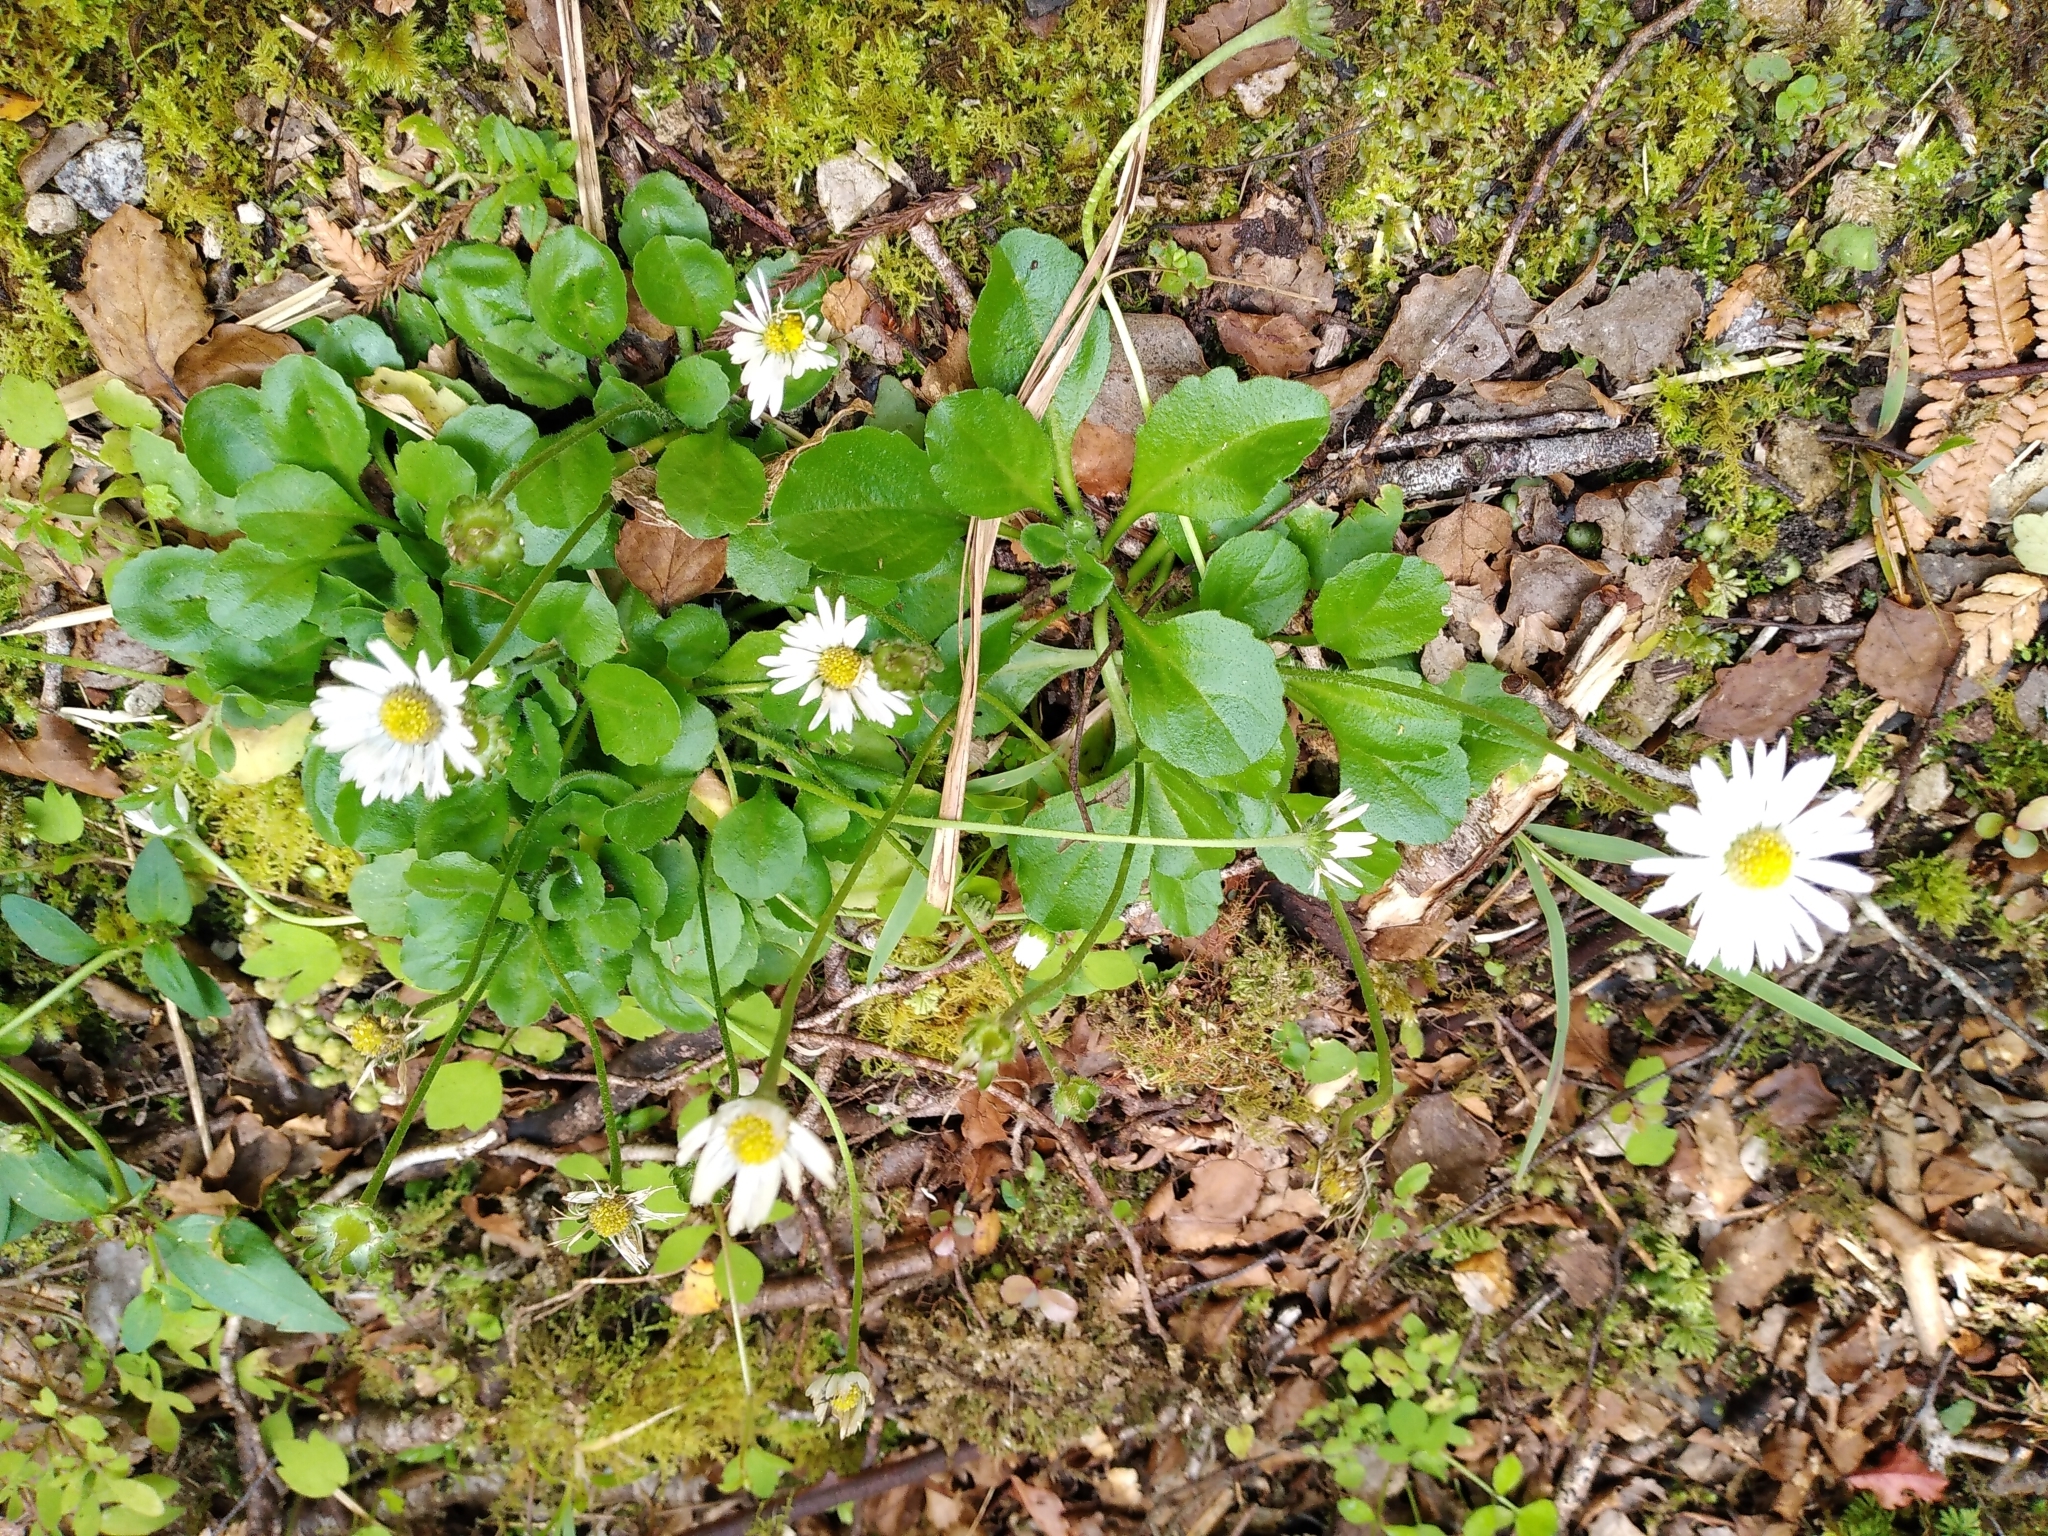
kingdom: Plantae
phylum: Tracheophyta
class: Magnoliopsida
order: Asterales
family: Asteraceae
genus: Bellis
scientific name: Bellis perennis
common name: Lawndaisy
